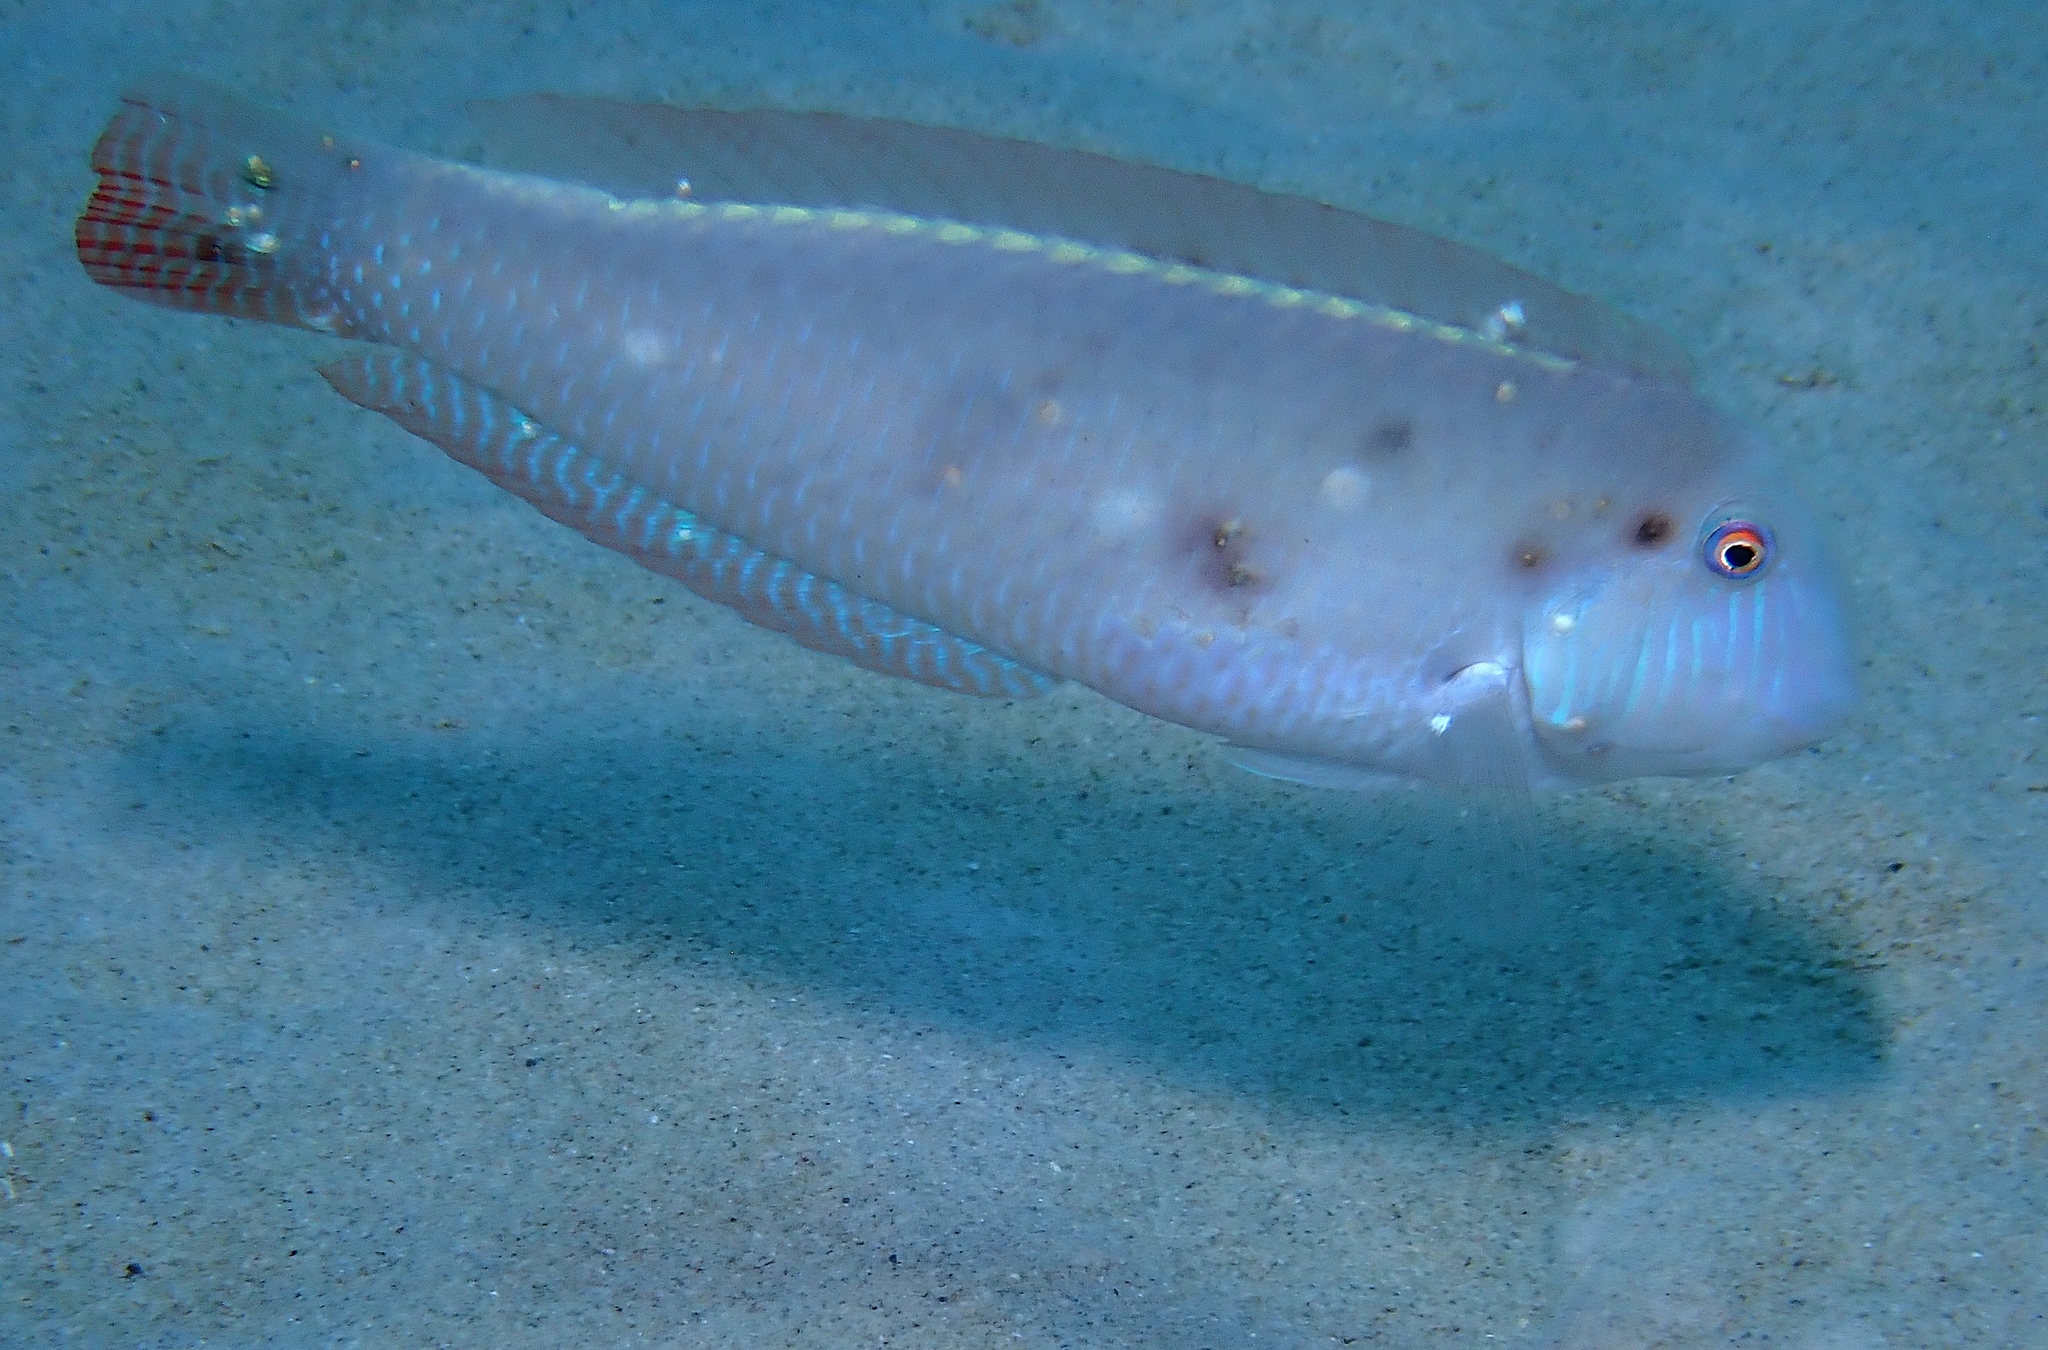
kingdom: Animalia
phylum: Chordata
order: Perciformes
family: Labridae
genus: Xyrichtys
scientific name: Xyrichtys novacula
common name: Pearly razorfish
